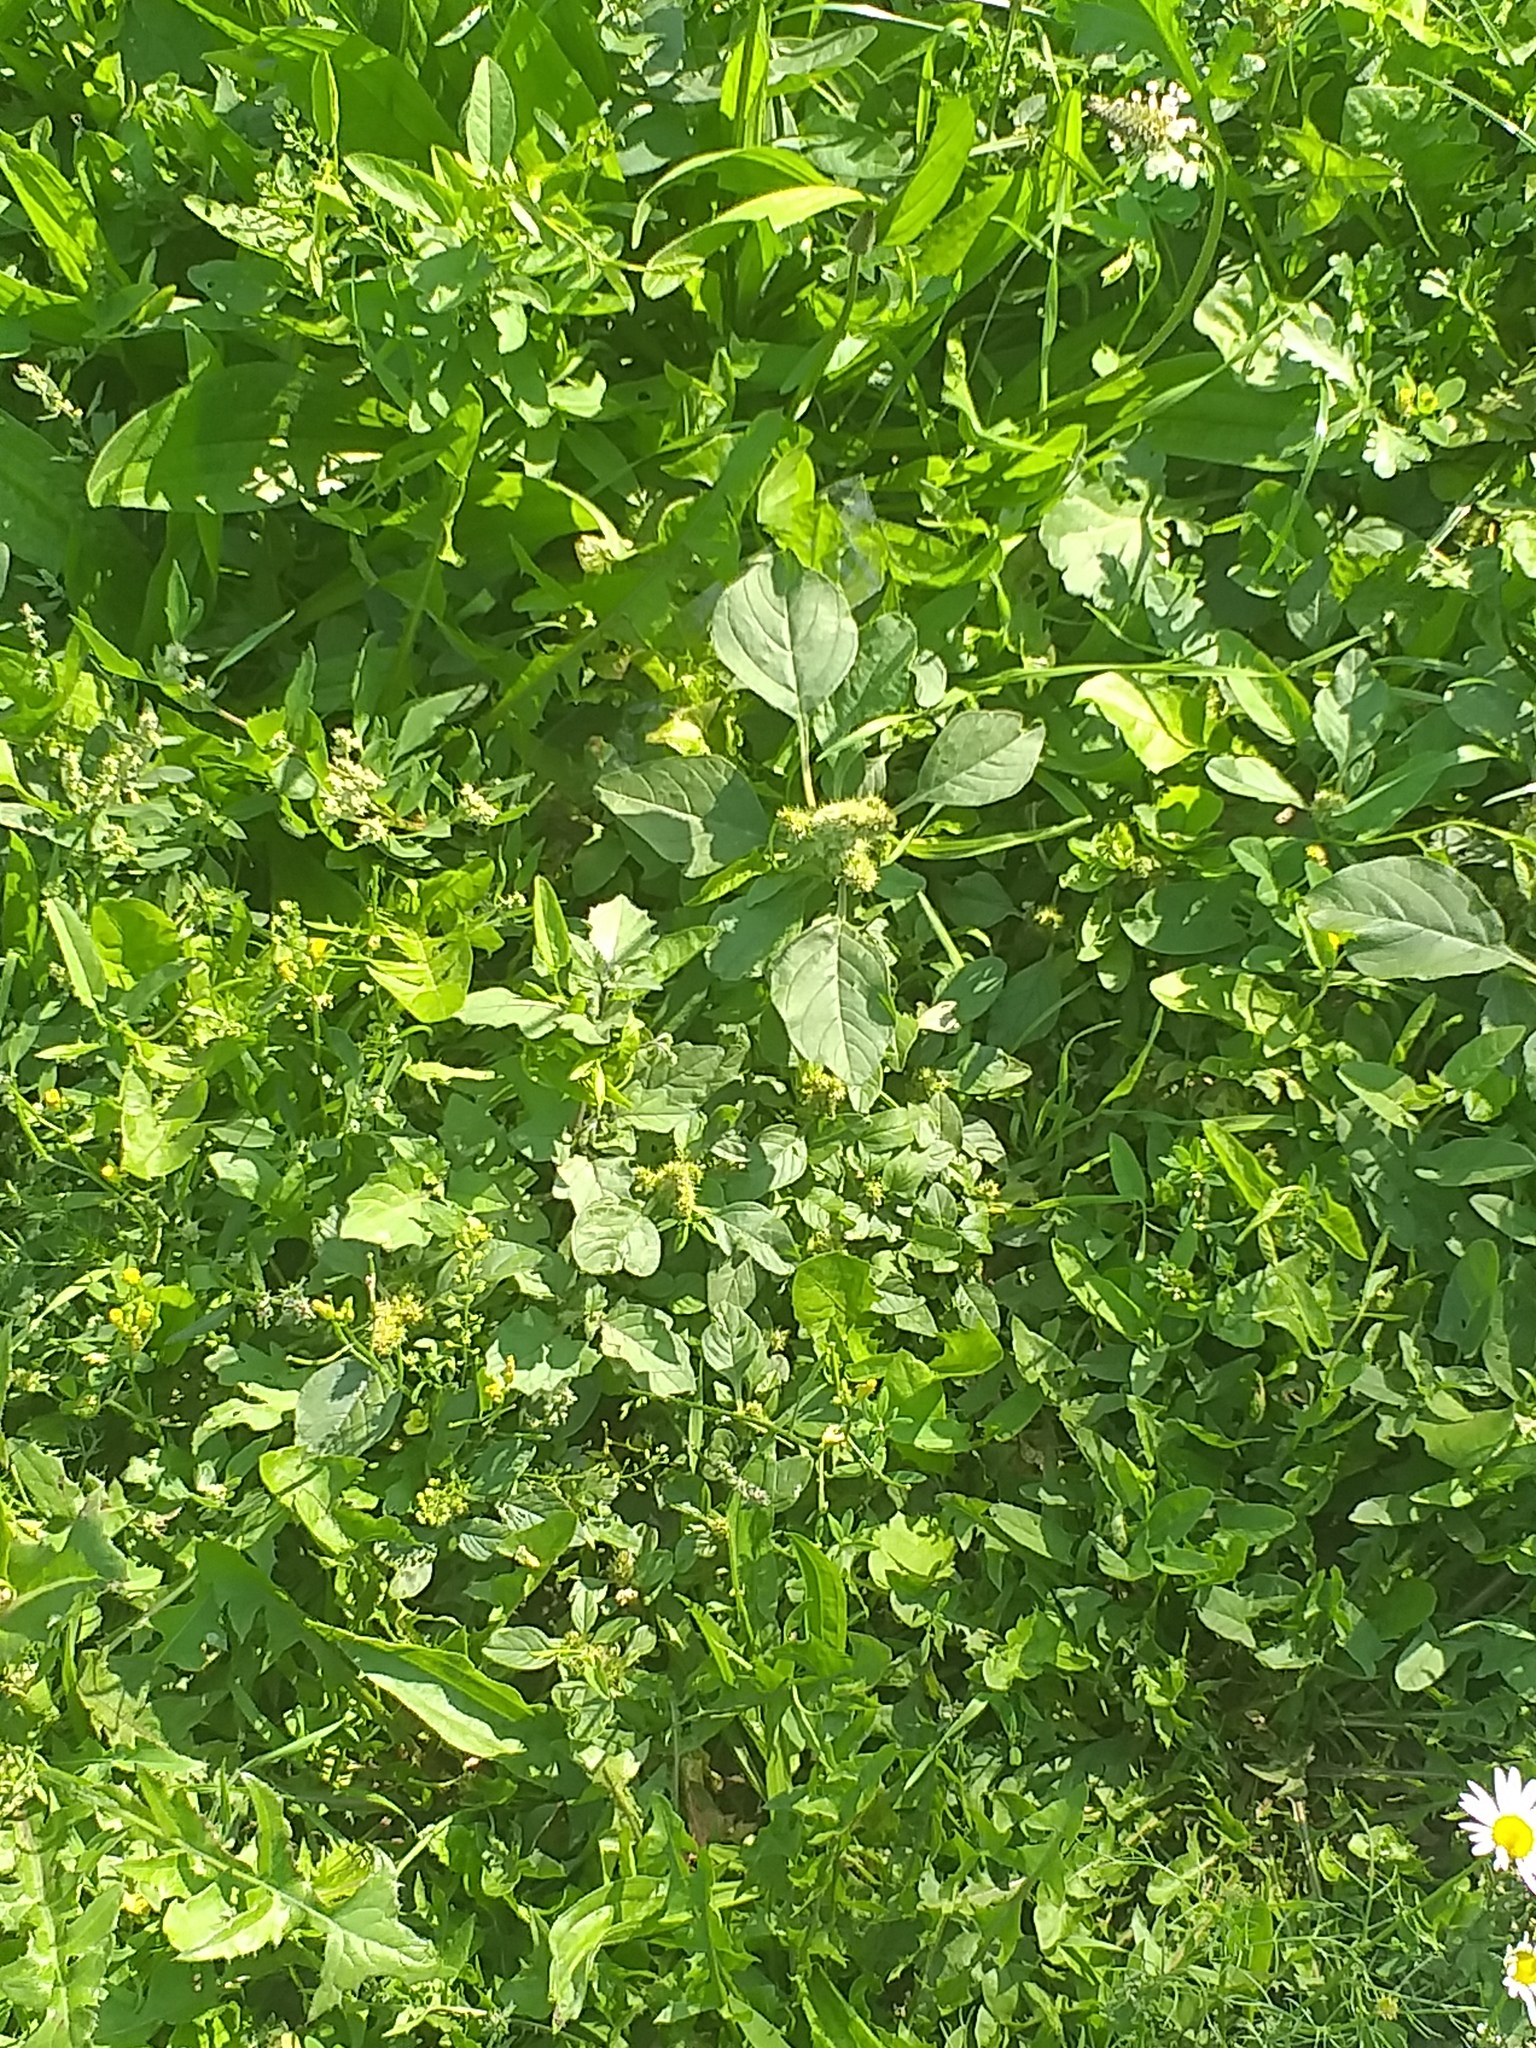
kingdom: Plantae
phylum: Tracheophyta
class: Magnoliopsida
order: Caryophyllales
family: Amaranthaceae
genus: Amaranthus
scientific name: Amaranthus retroflexus
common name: Redroot amaranth
